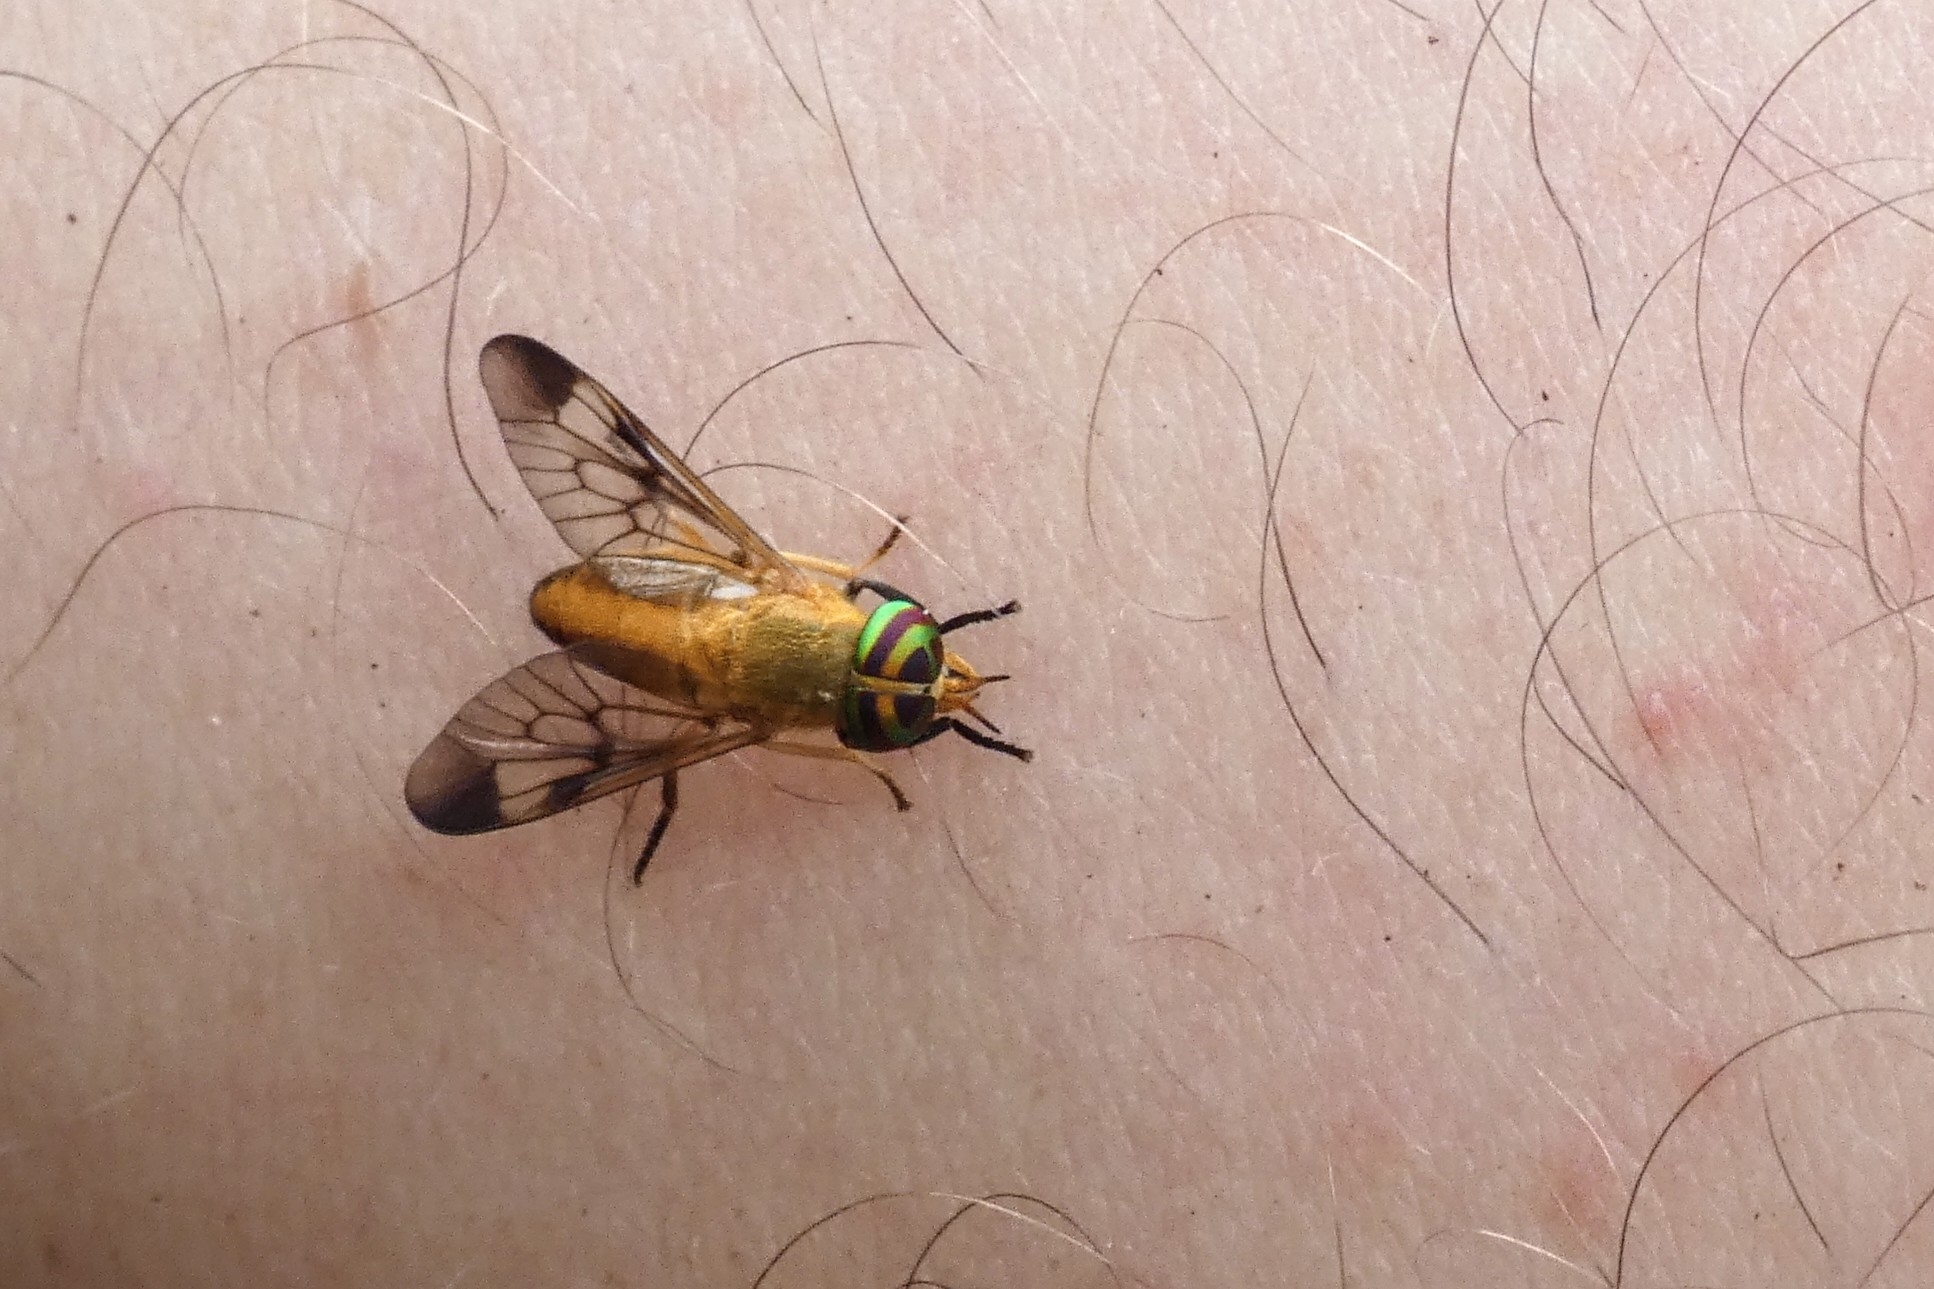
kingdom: Animalia
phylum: Arthropoda
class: Insecta
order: Diptera
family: Tabanidae
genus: Diachlorus
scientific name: Diachlorus ferrugatus
